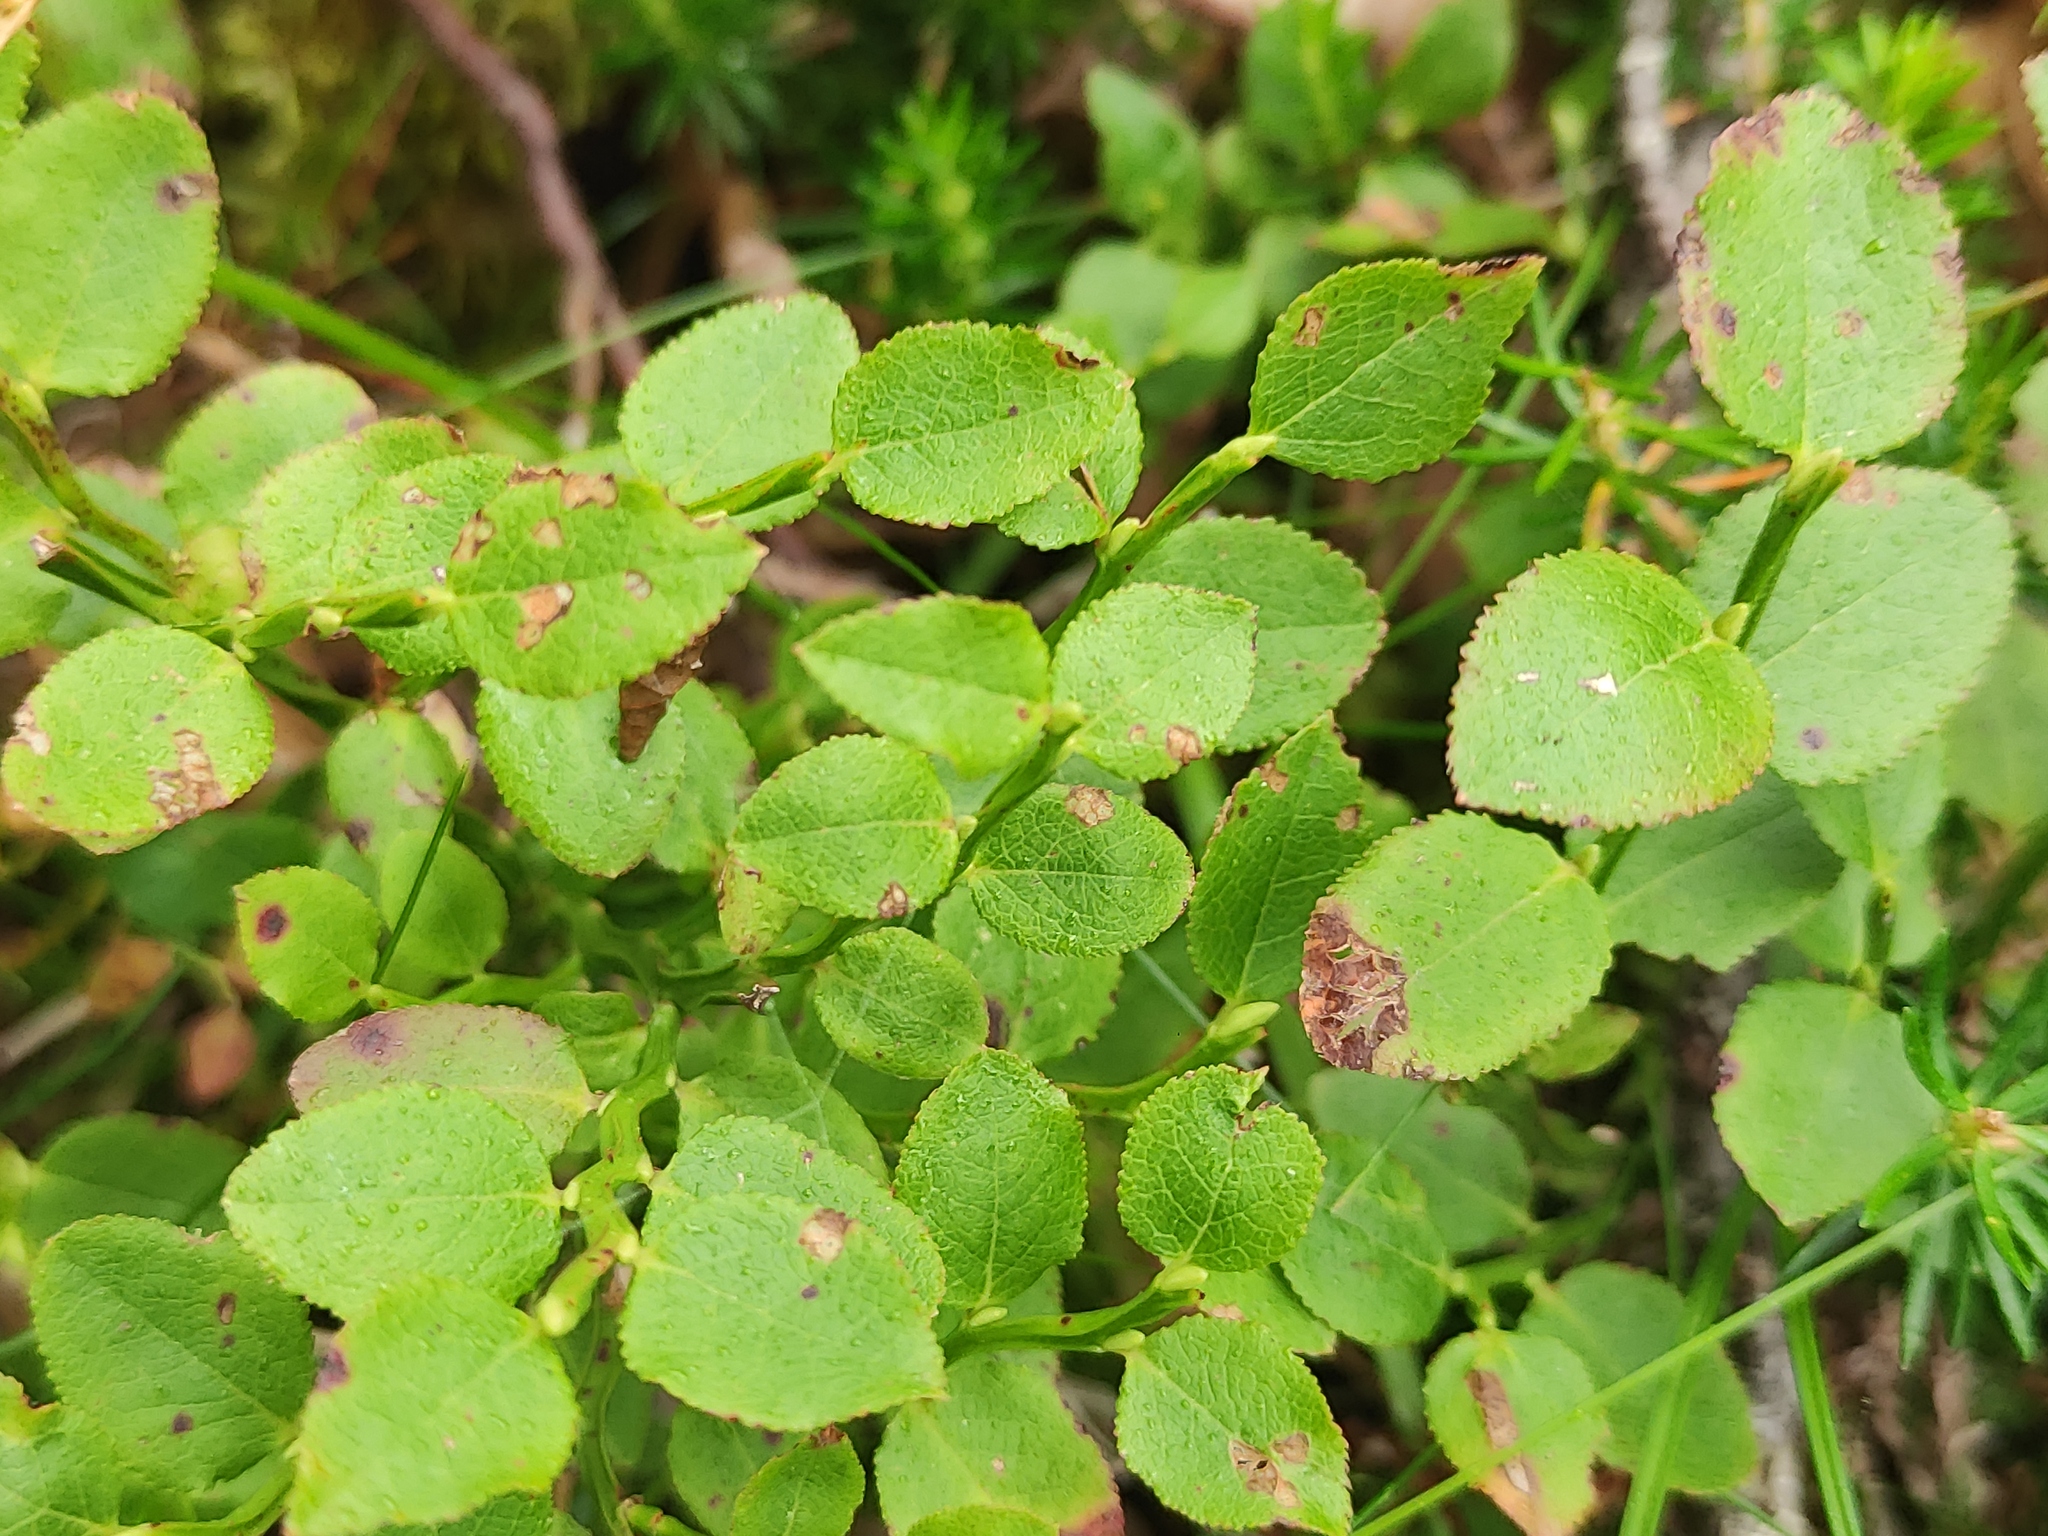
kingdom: Plantae
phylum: Tracheophyta
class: Magnoliopsida
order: Ericales
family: Ericaceae
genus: Vaccinium
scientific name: Vaccinium myrtillus
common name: Bilberry
